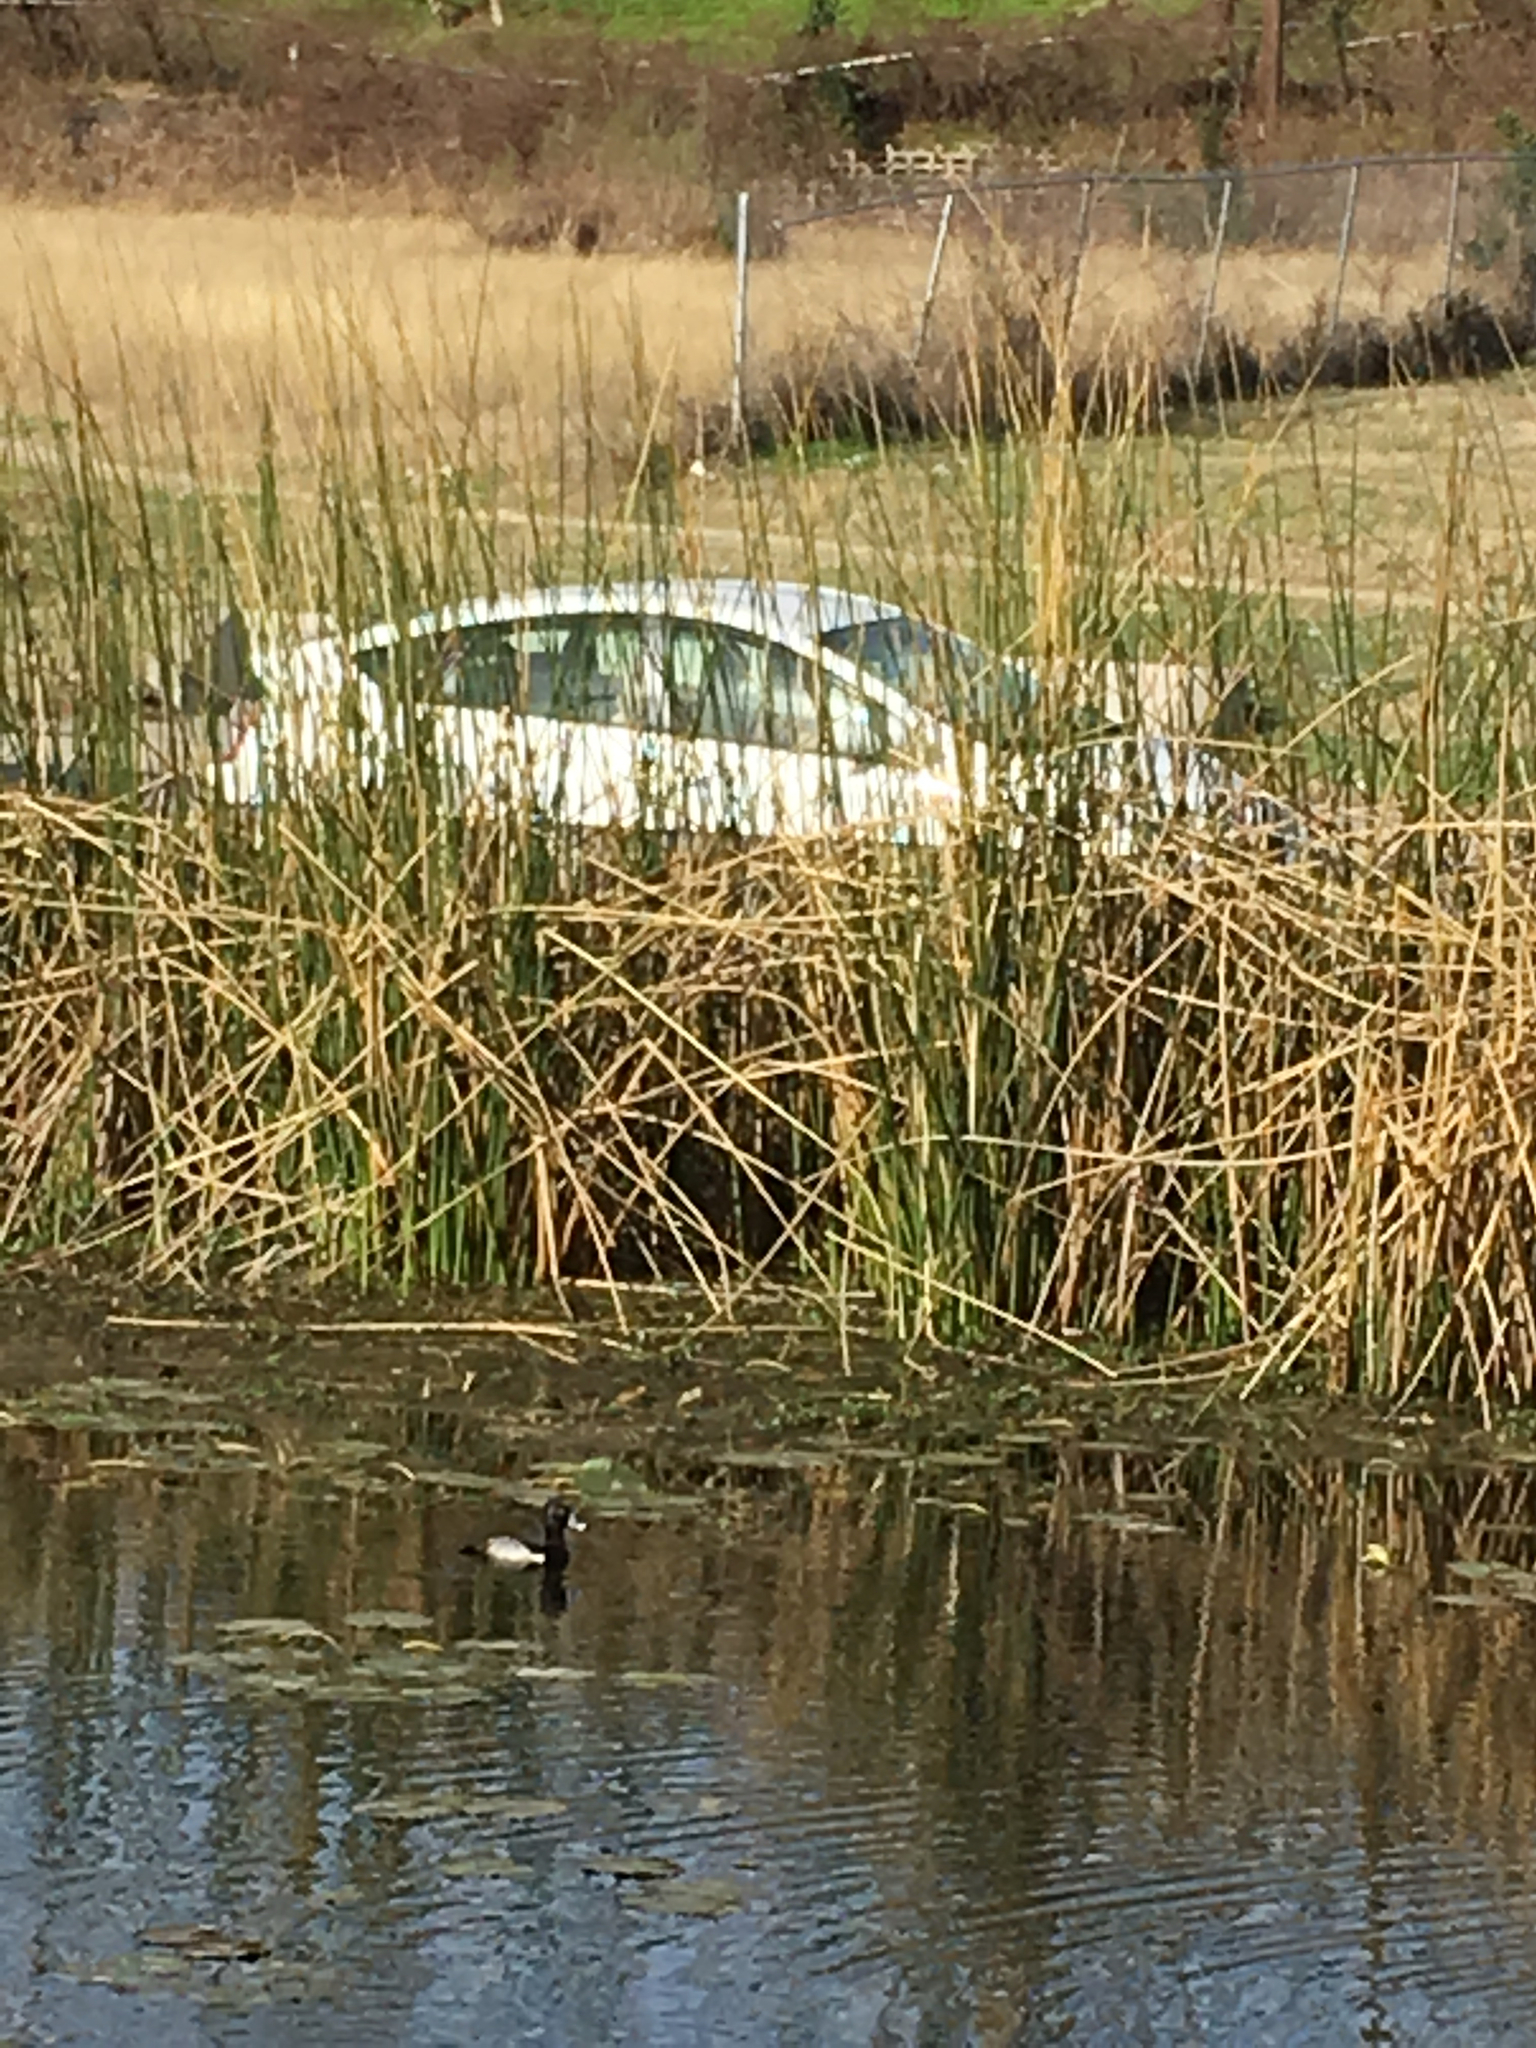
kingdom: Animalia
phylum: Chordata
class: Aves
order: Anseriformes
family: Anatidae
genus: Aythya
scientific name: Aythya collaris
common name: Ring-necked duck
